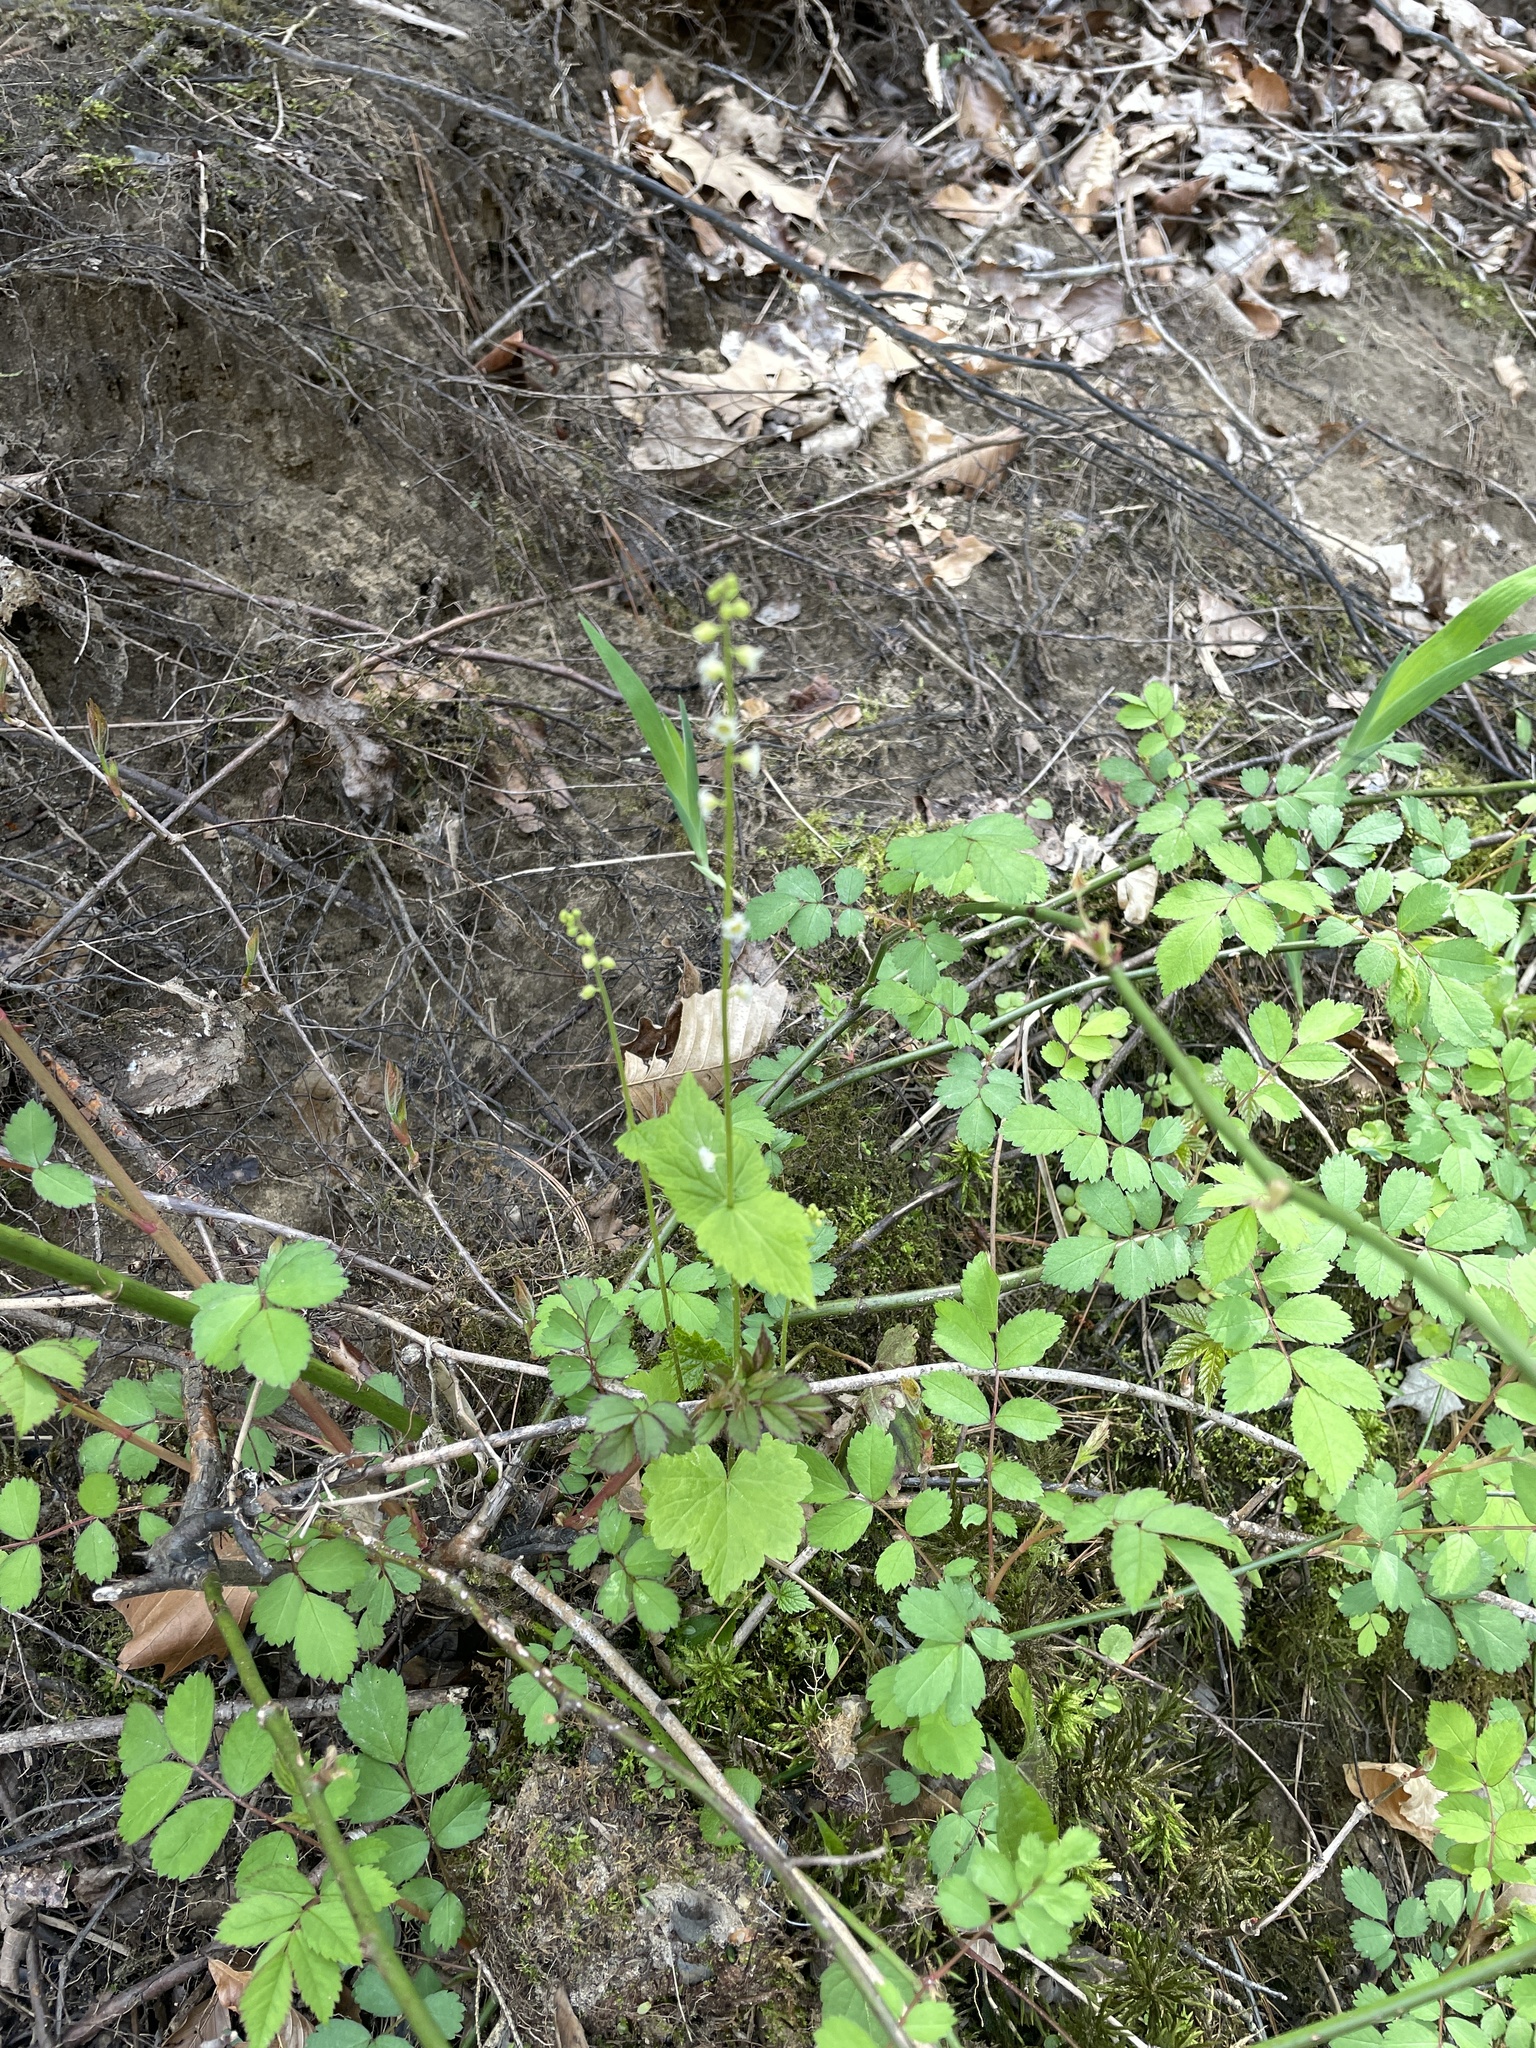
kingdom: Plantae
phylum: Tracheophyta
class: Magnoliopsida
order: Saxifragales
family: Saxifragaceae
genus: Mitella
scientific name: Mitella diphylla
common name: Coolwort
